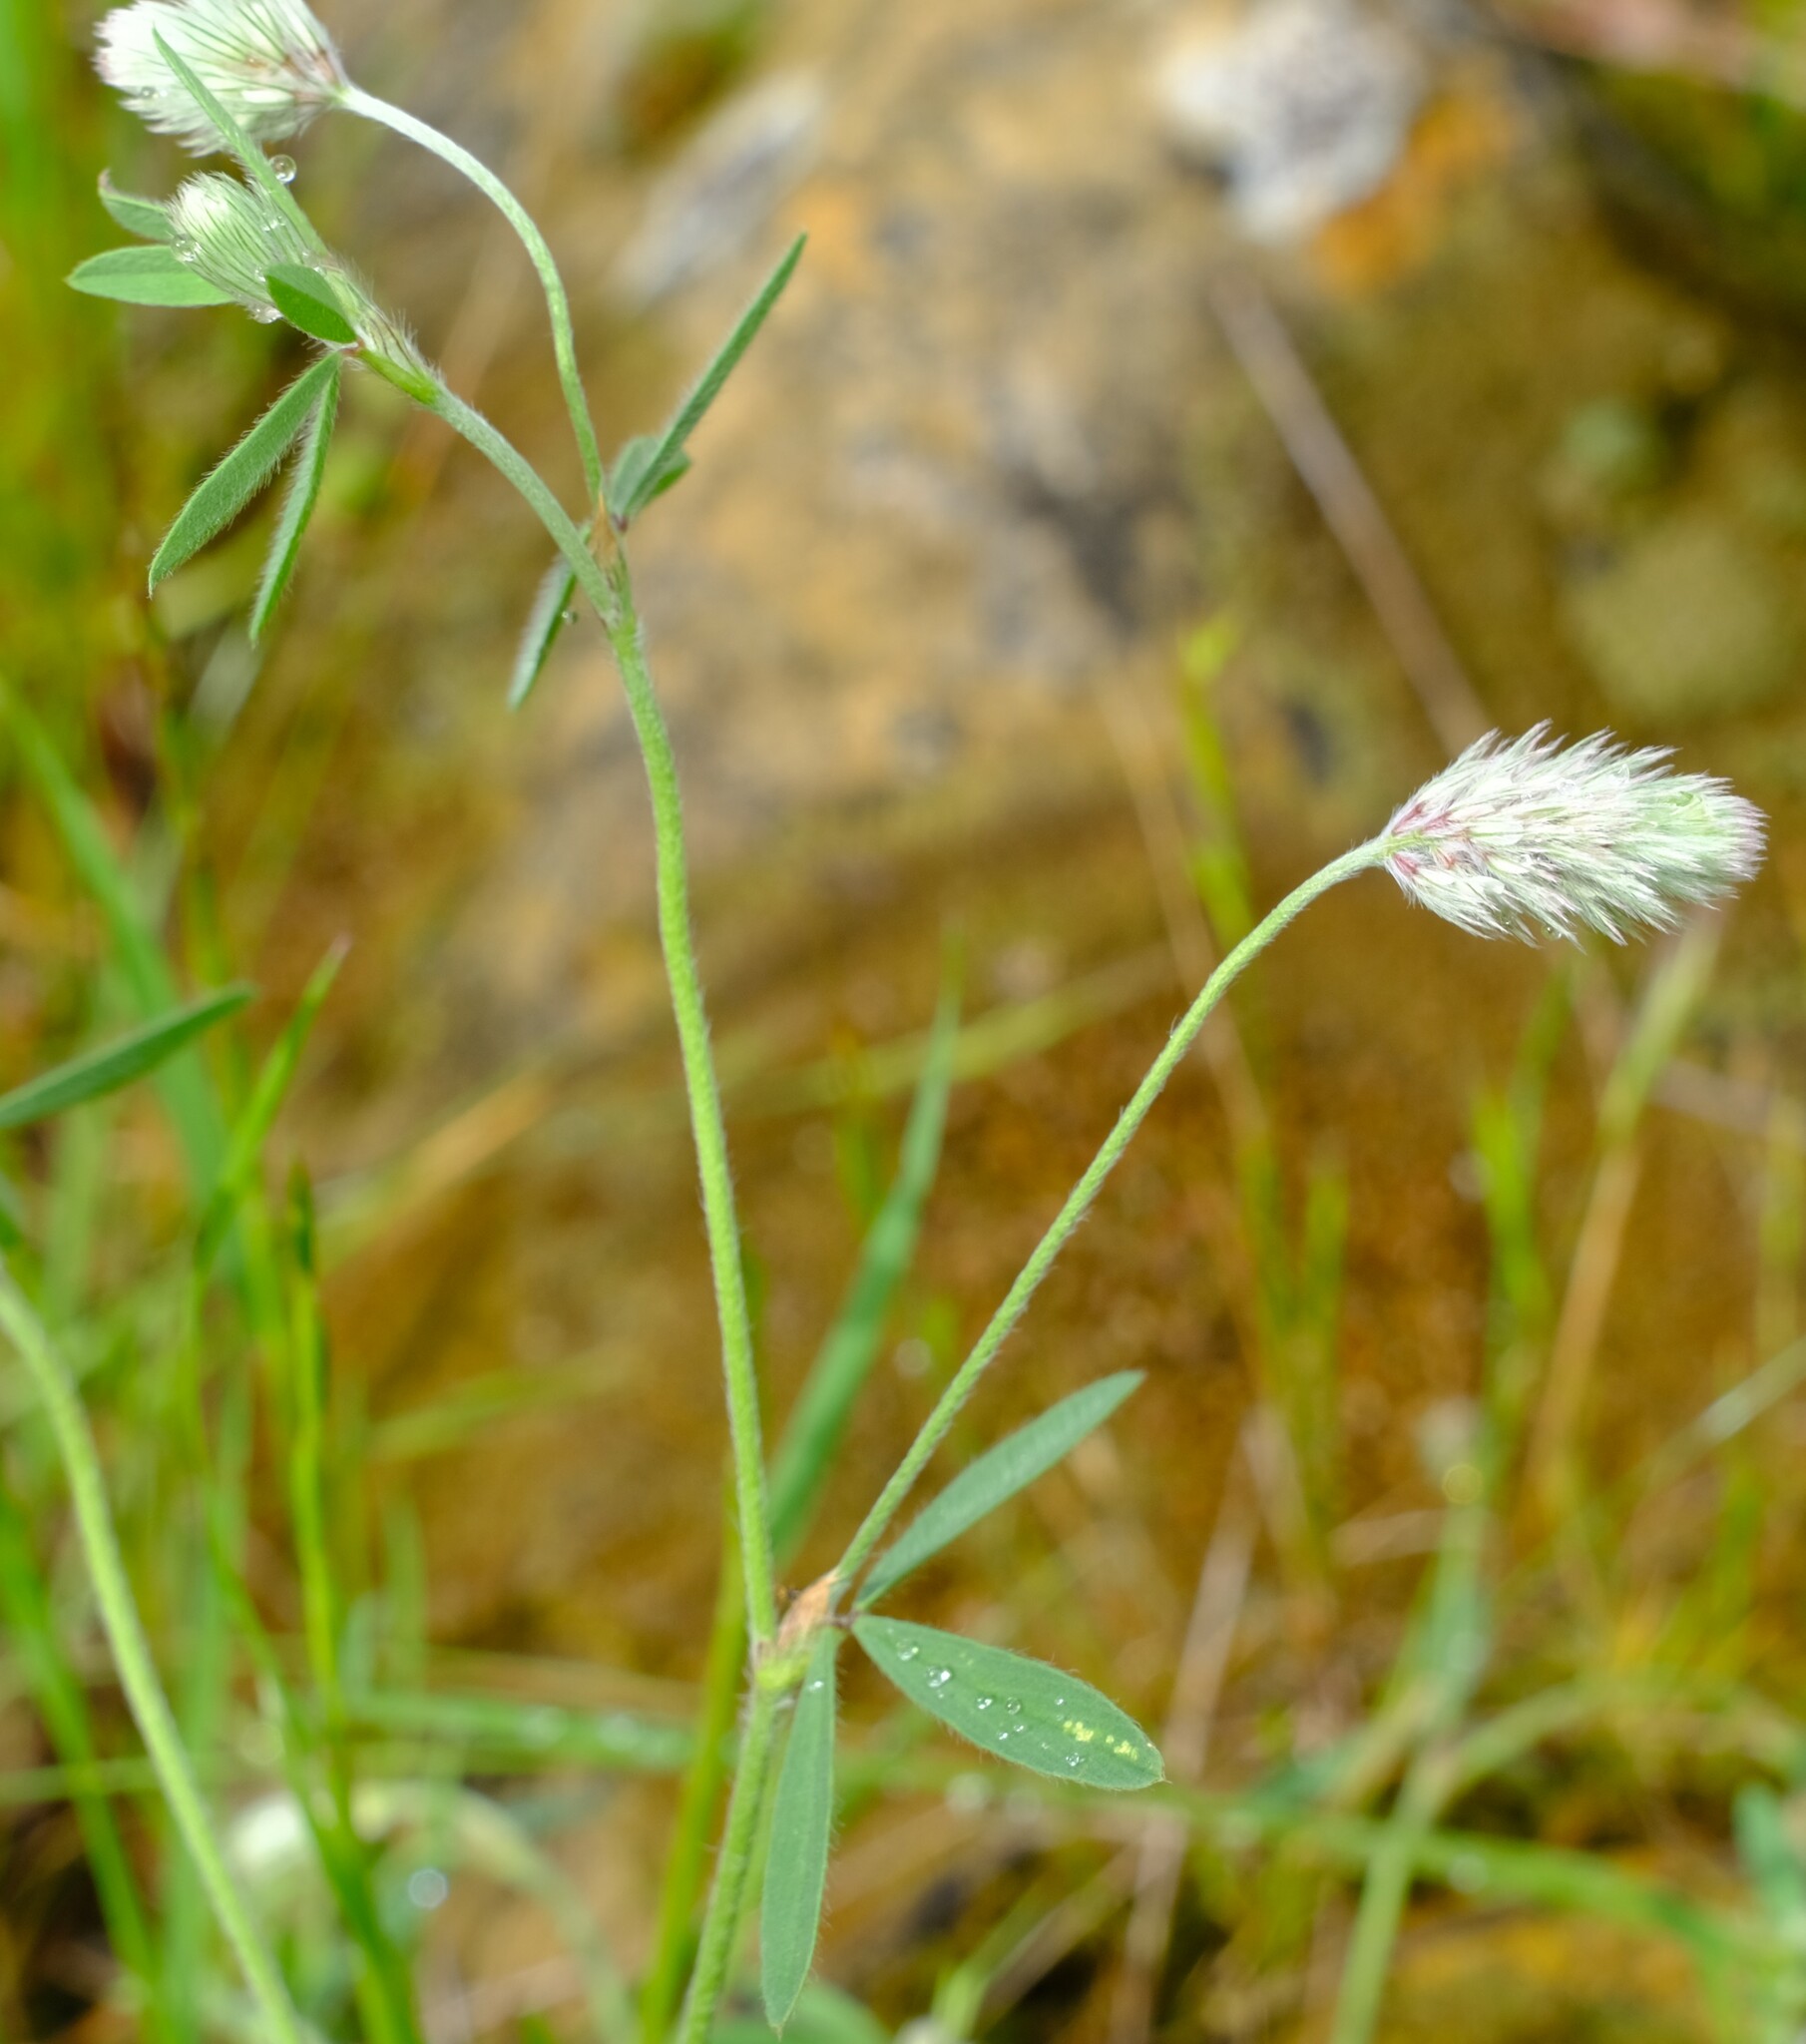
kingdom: Plantae
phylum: Tracheophyta
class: Magnoliopsida
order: Fabales
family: Fabaceae
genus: Trifolium
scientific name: Trifolium arvense
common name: Hare's-foot clover
